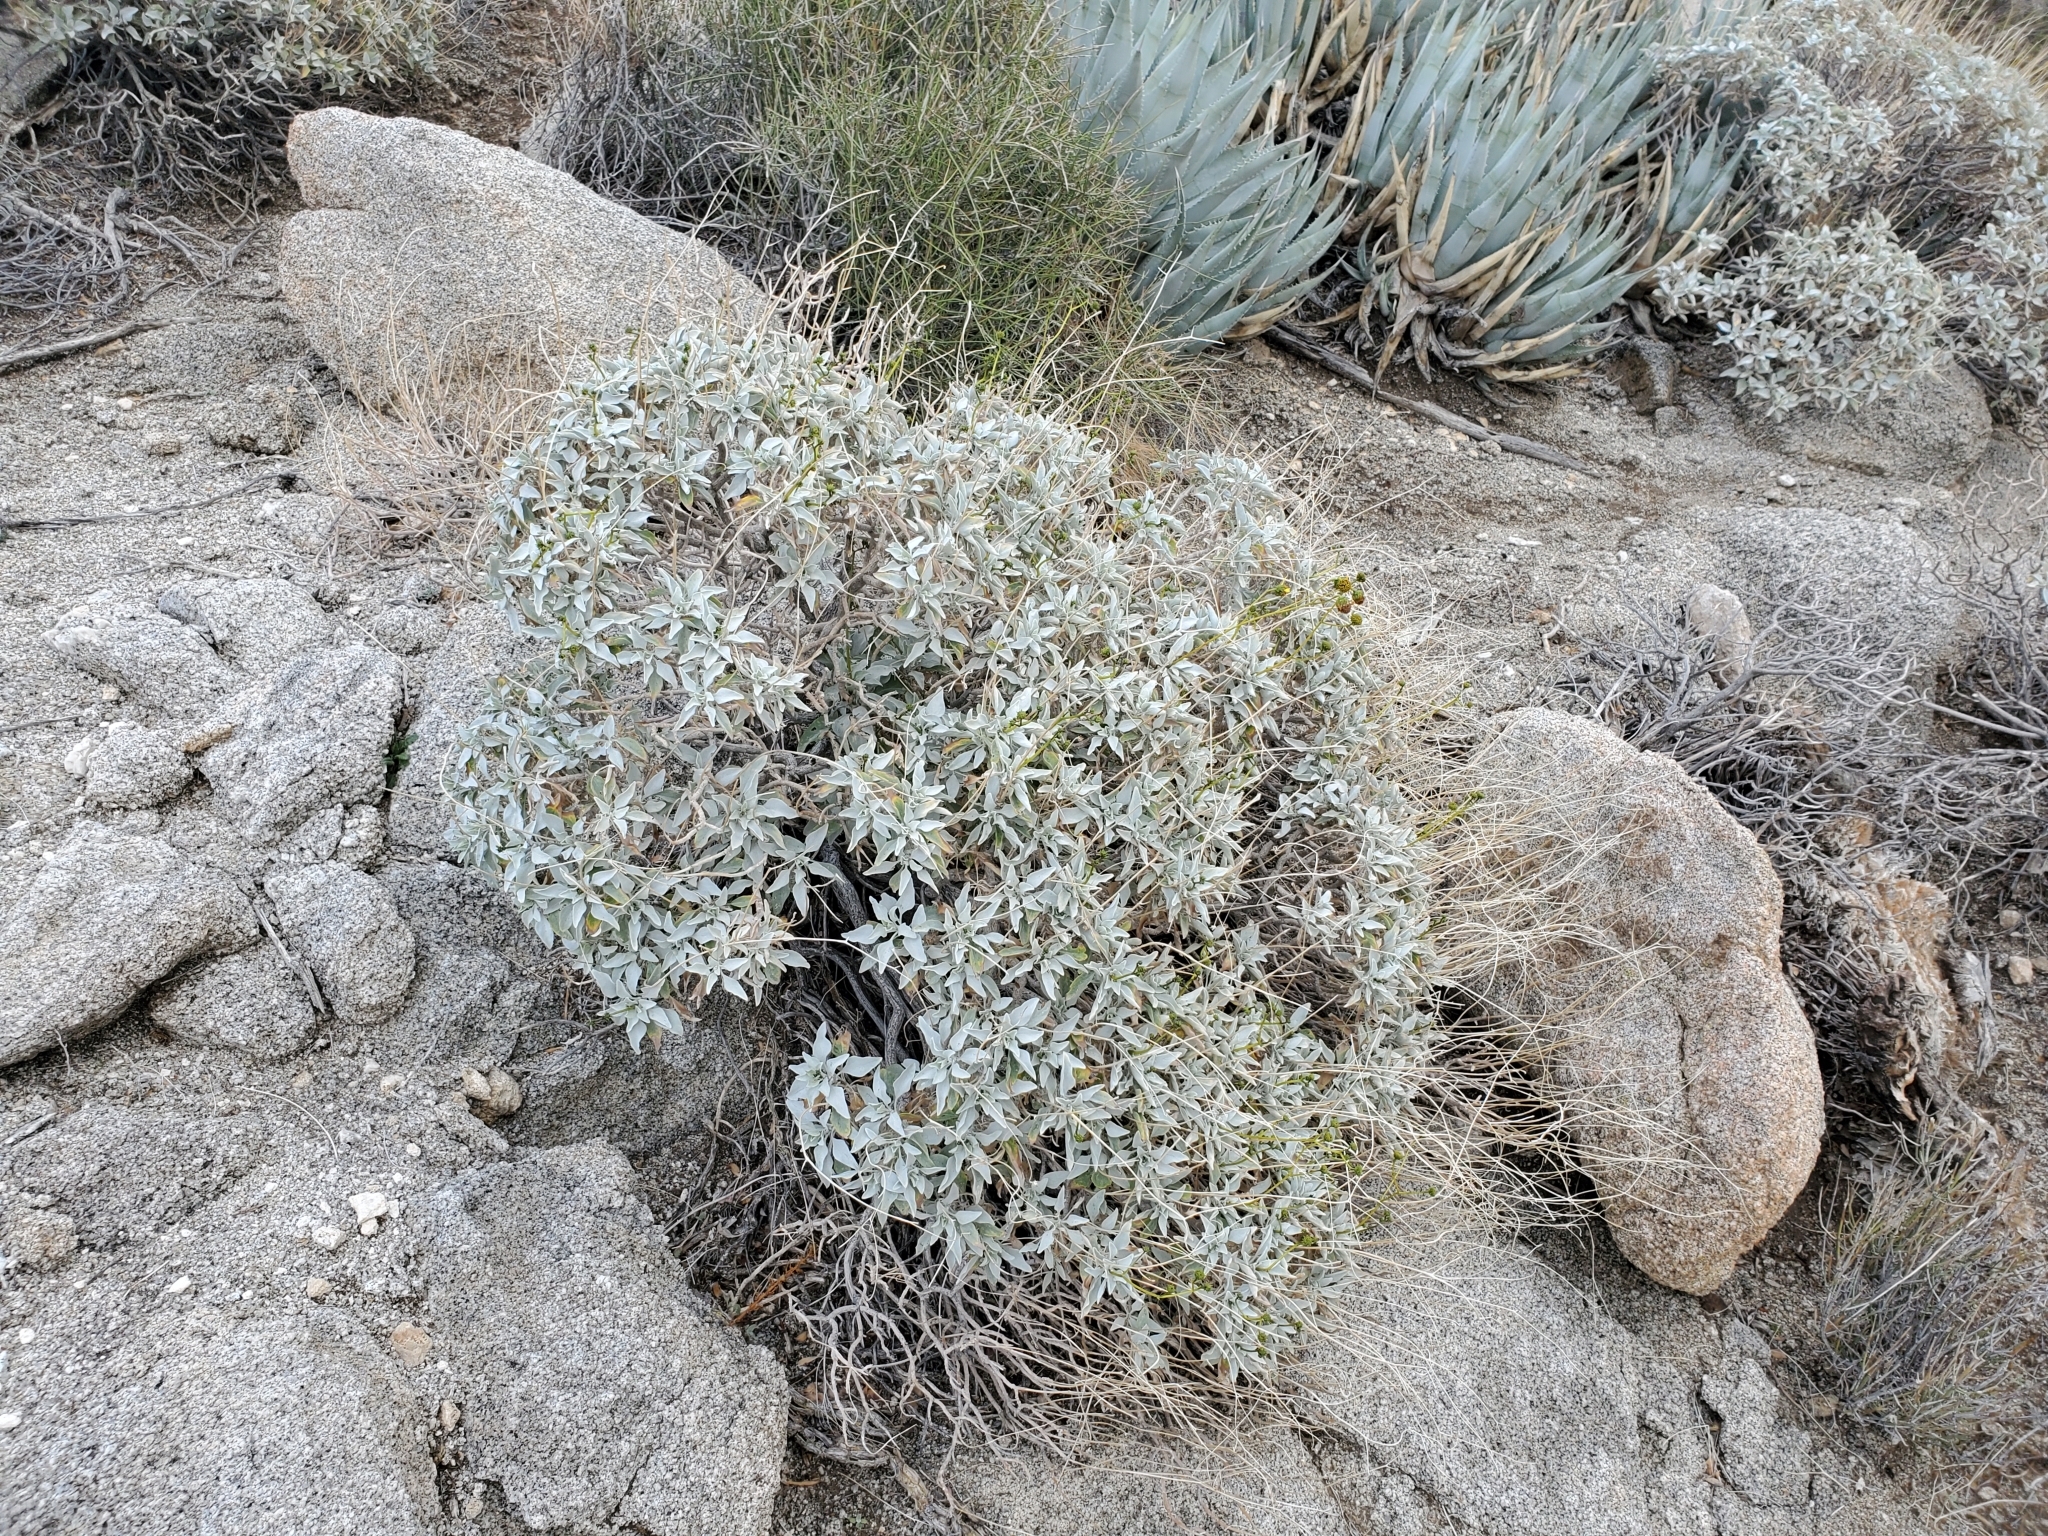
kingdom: Plantae
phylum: Tracheophyta
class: Magnoliopsida
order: Asterales
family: Asteraceae
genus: Encelia
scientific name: Encelia farinosa
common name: Brittlebush
